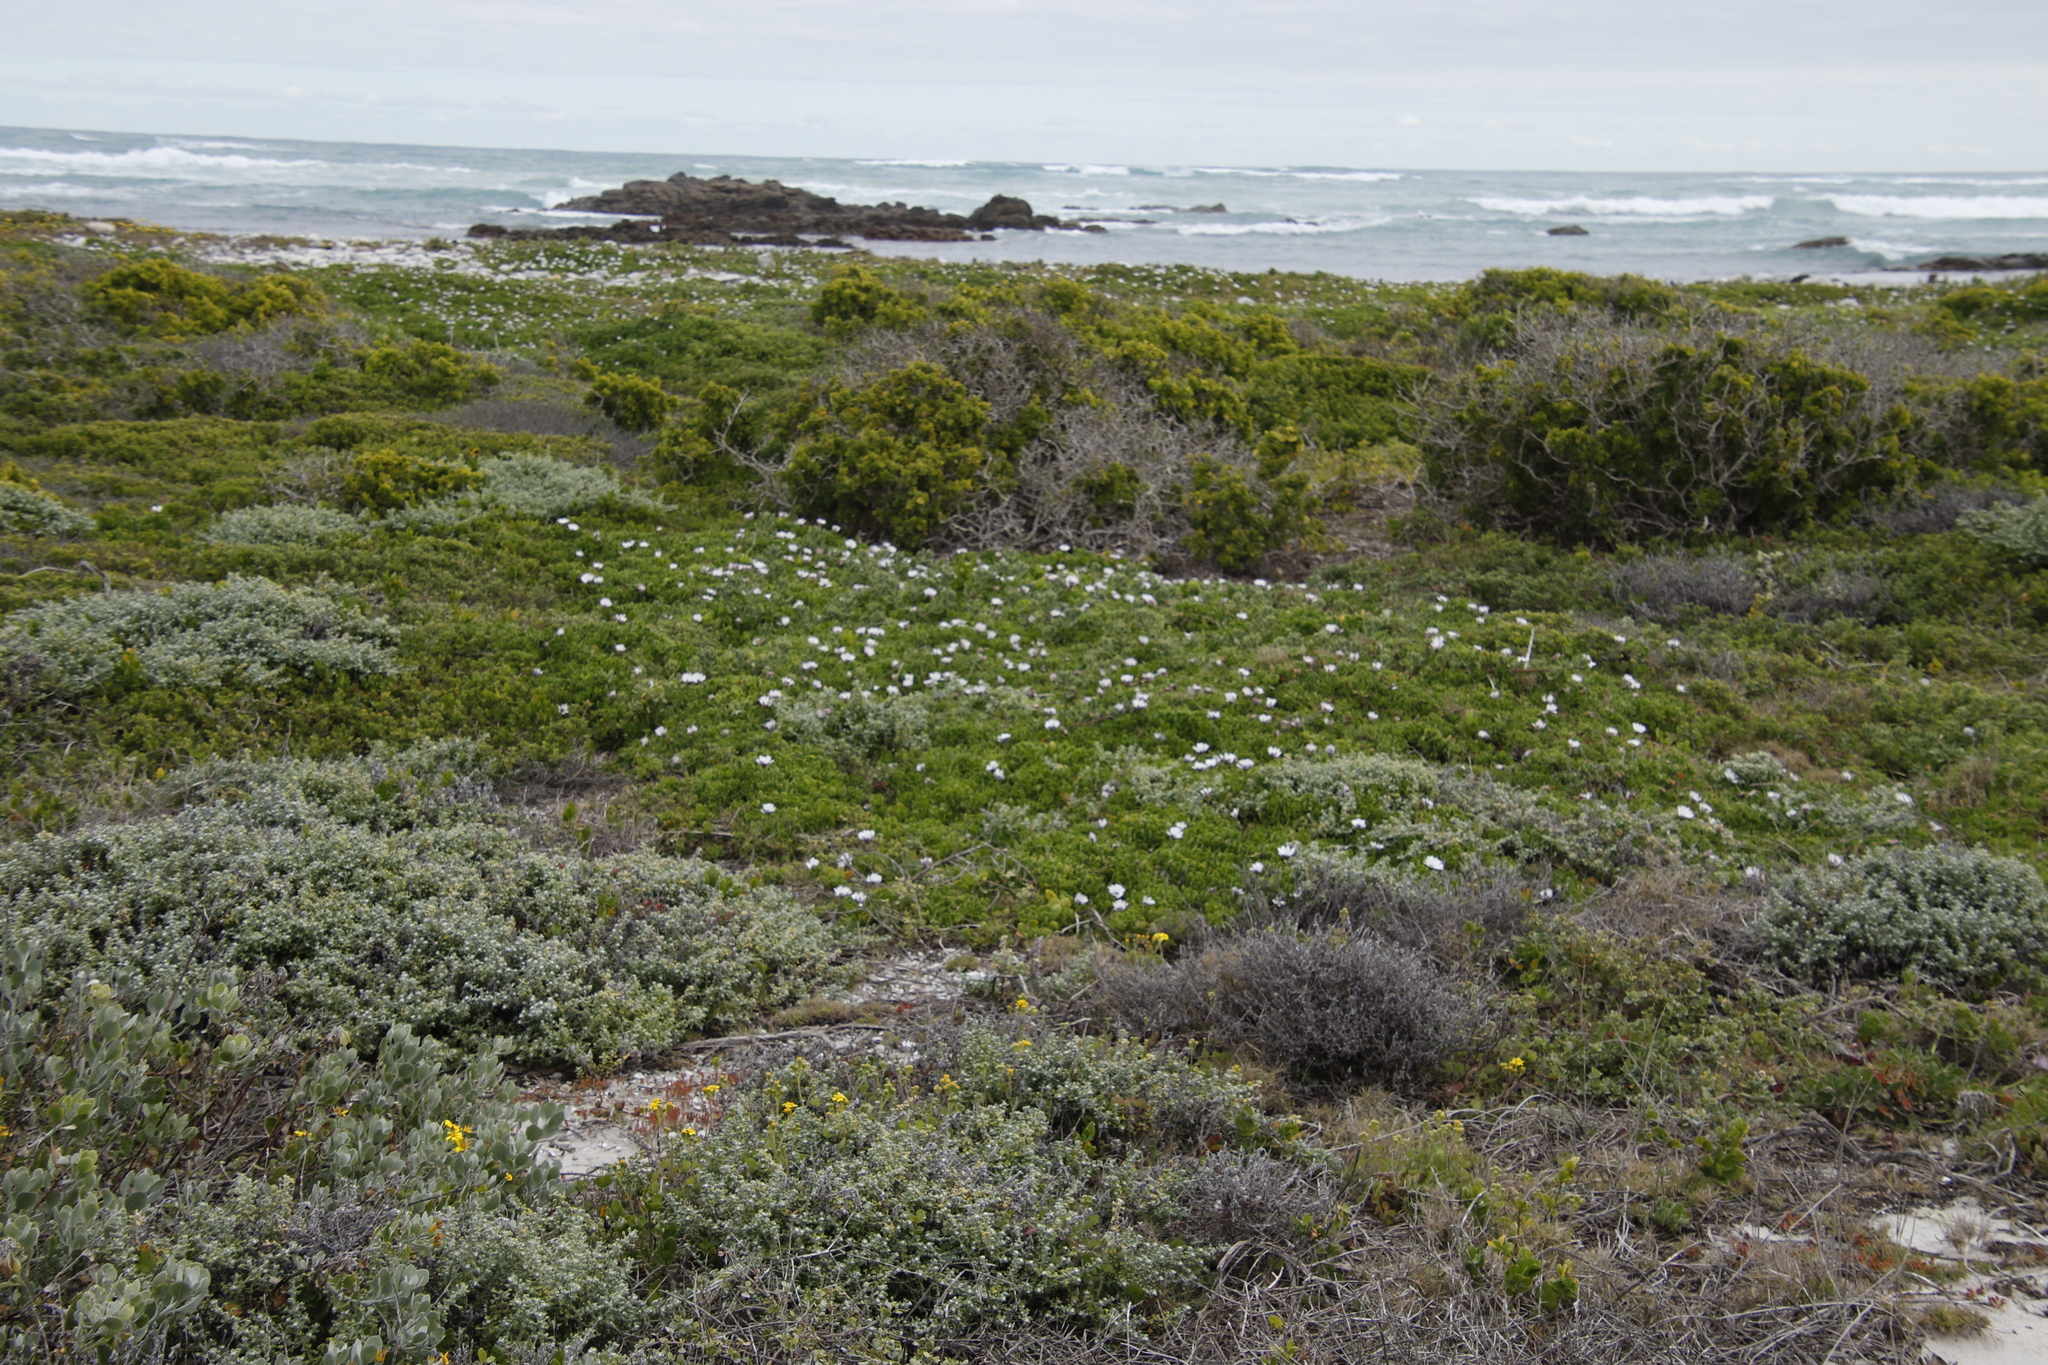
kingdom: Plantae
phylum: Tracheophyta
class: Magnoliopsida
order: Asterales
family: Asteraceae
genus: Dimorphotheca
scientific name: Dimorphotheca fruticosa
